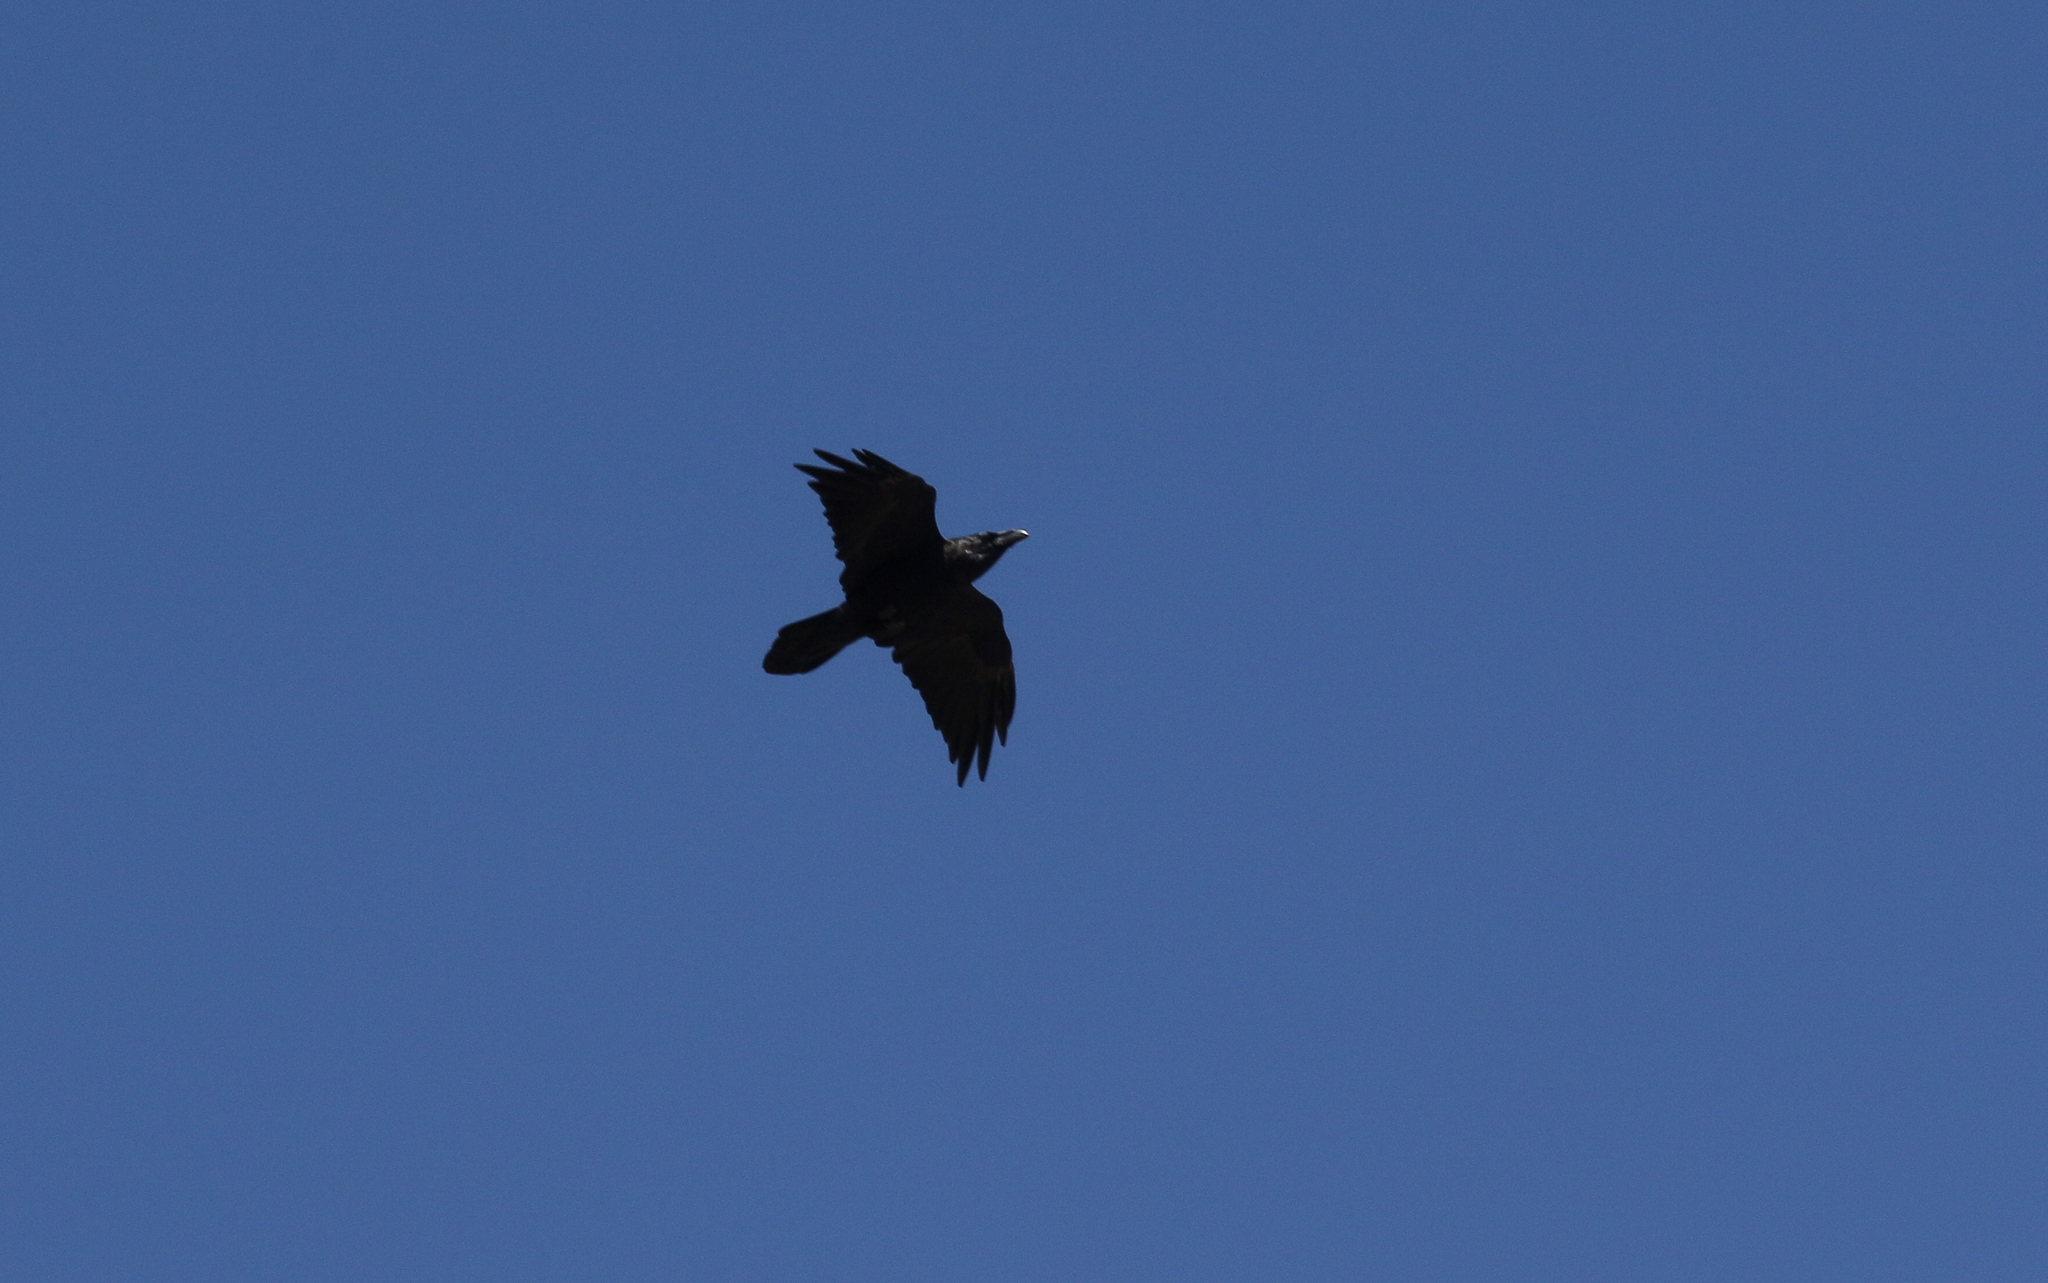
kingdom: Animalia
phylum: Chordata
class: Aves
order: Passeriformes
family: Corvidae
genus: Corvus
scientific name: Corvus corax
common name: Common raven
